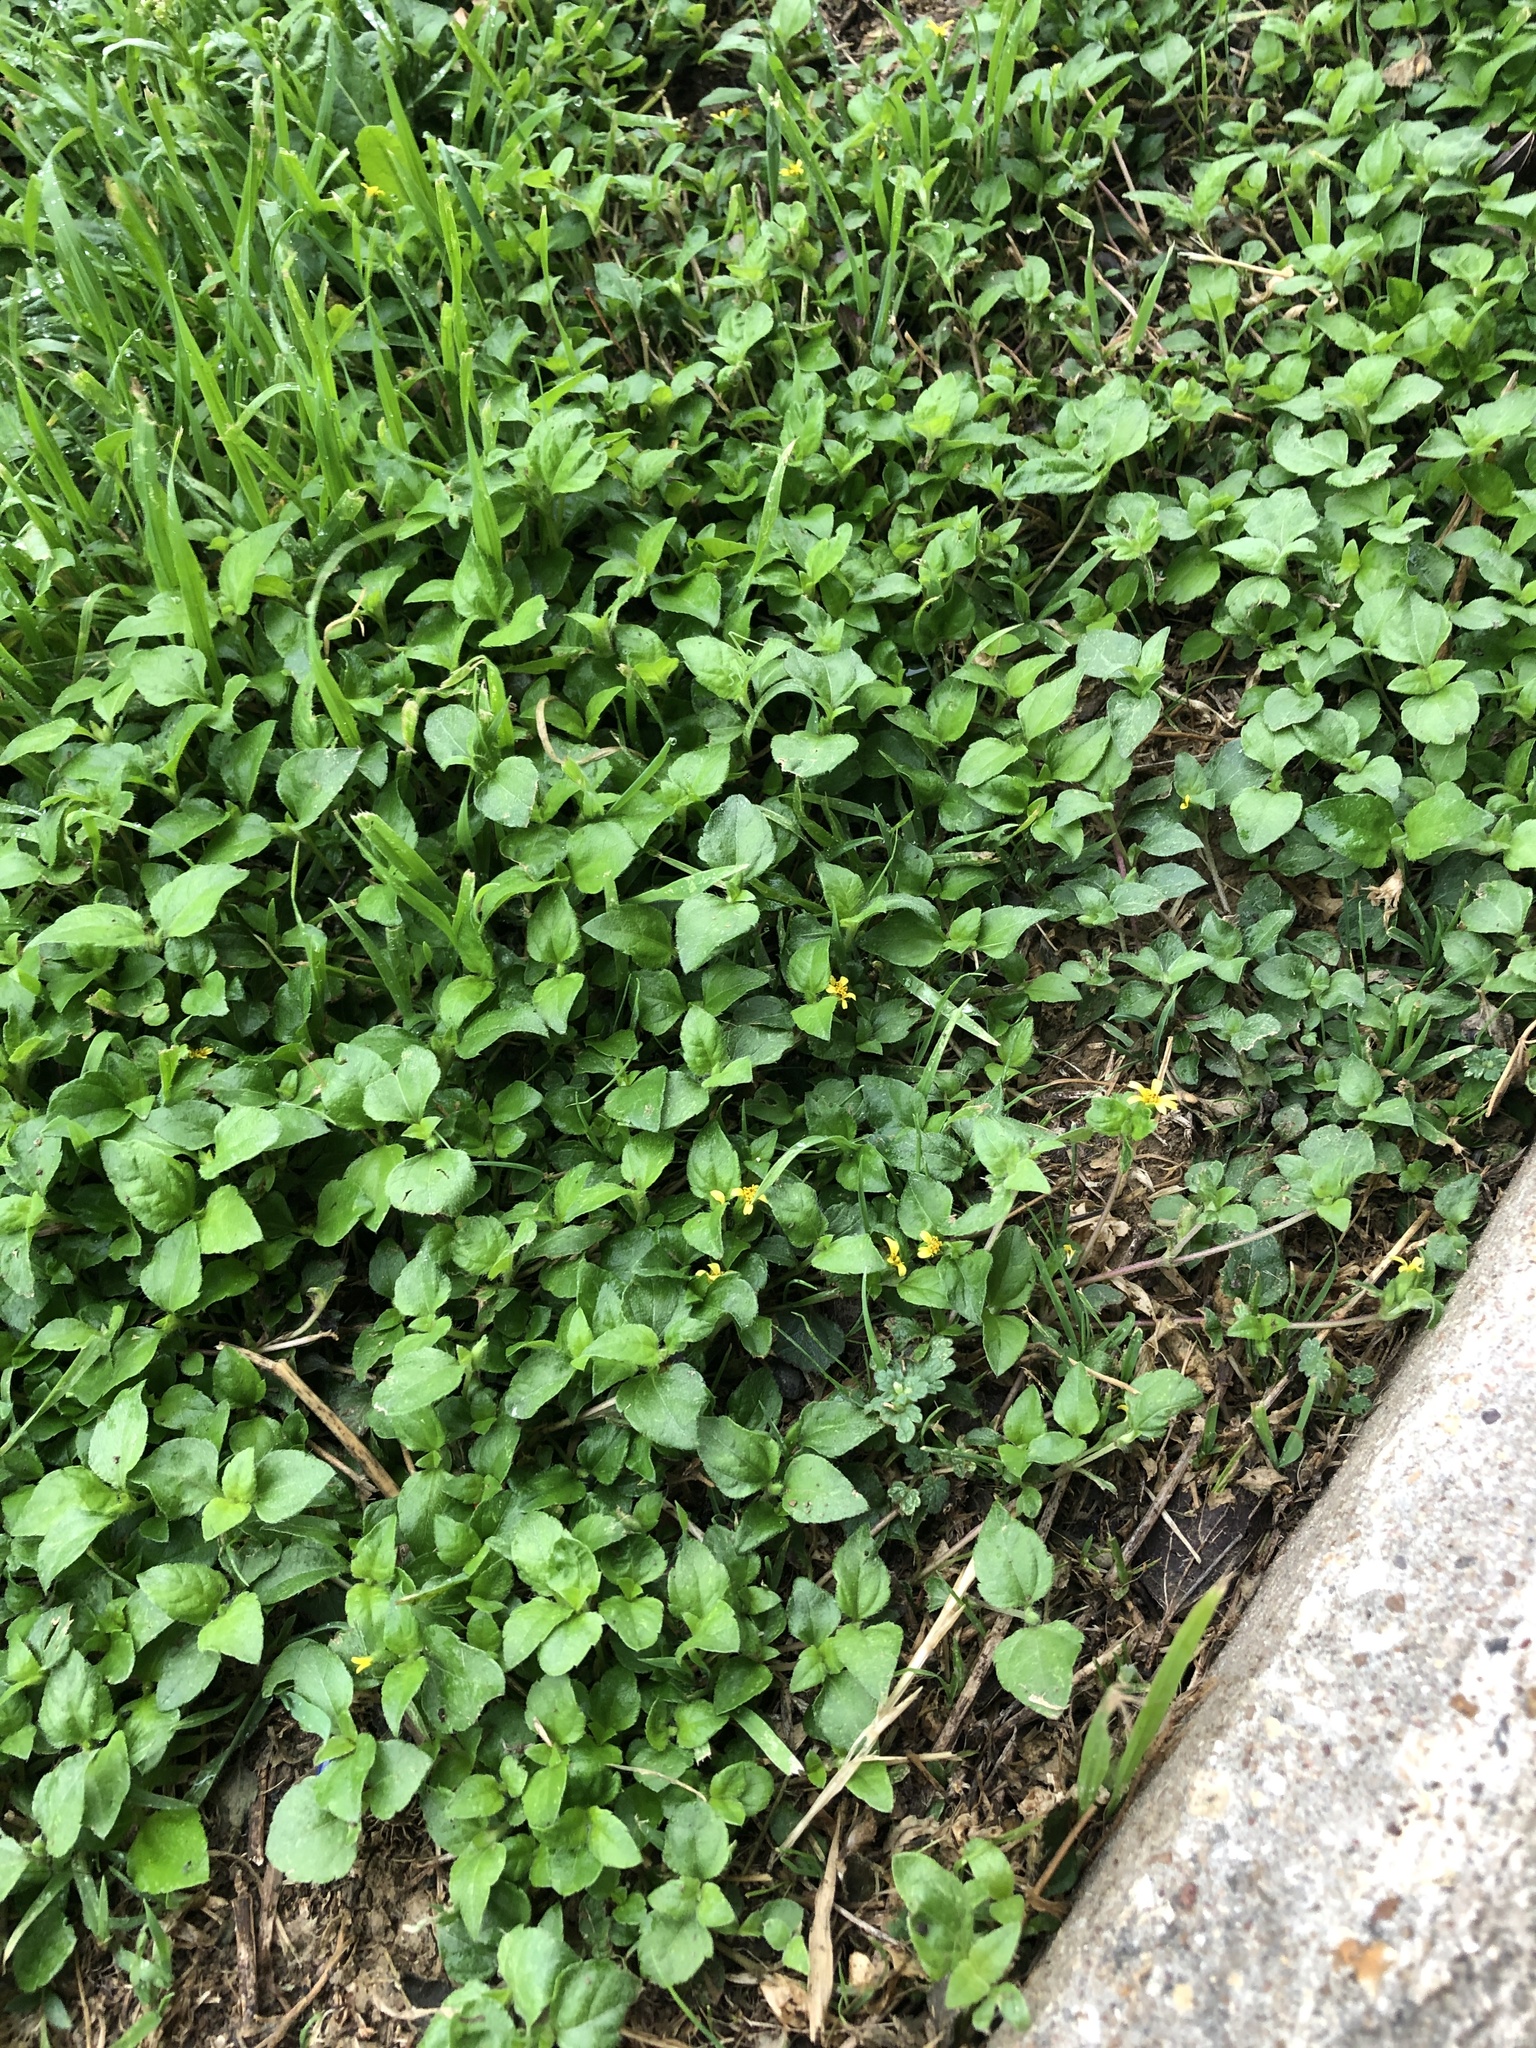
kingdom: Plantae
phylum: Tracheophyta
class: Magnoliopsida
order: Asterales
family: Asteraceae
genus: Calyptocarpus
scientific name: Calyptocarpus vialis
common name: Straggler daisy
